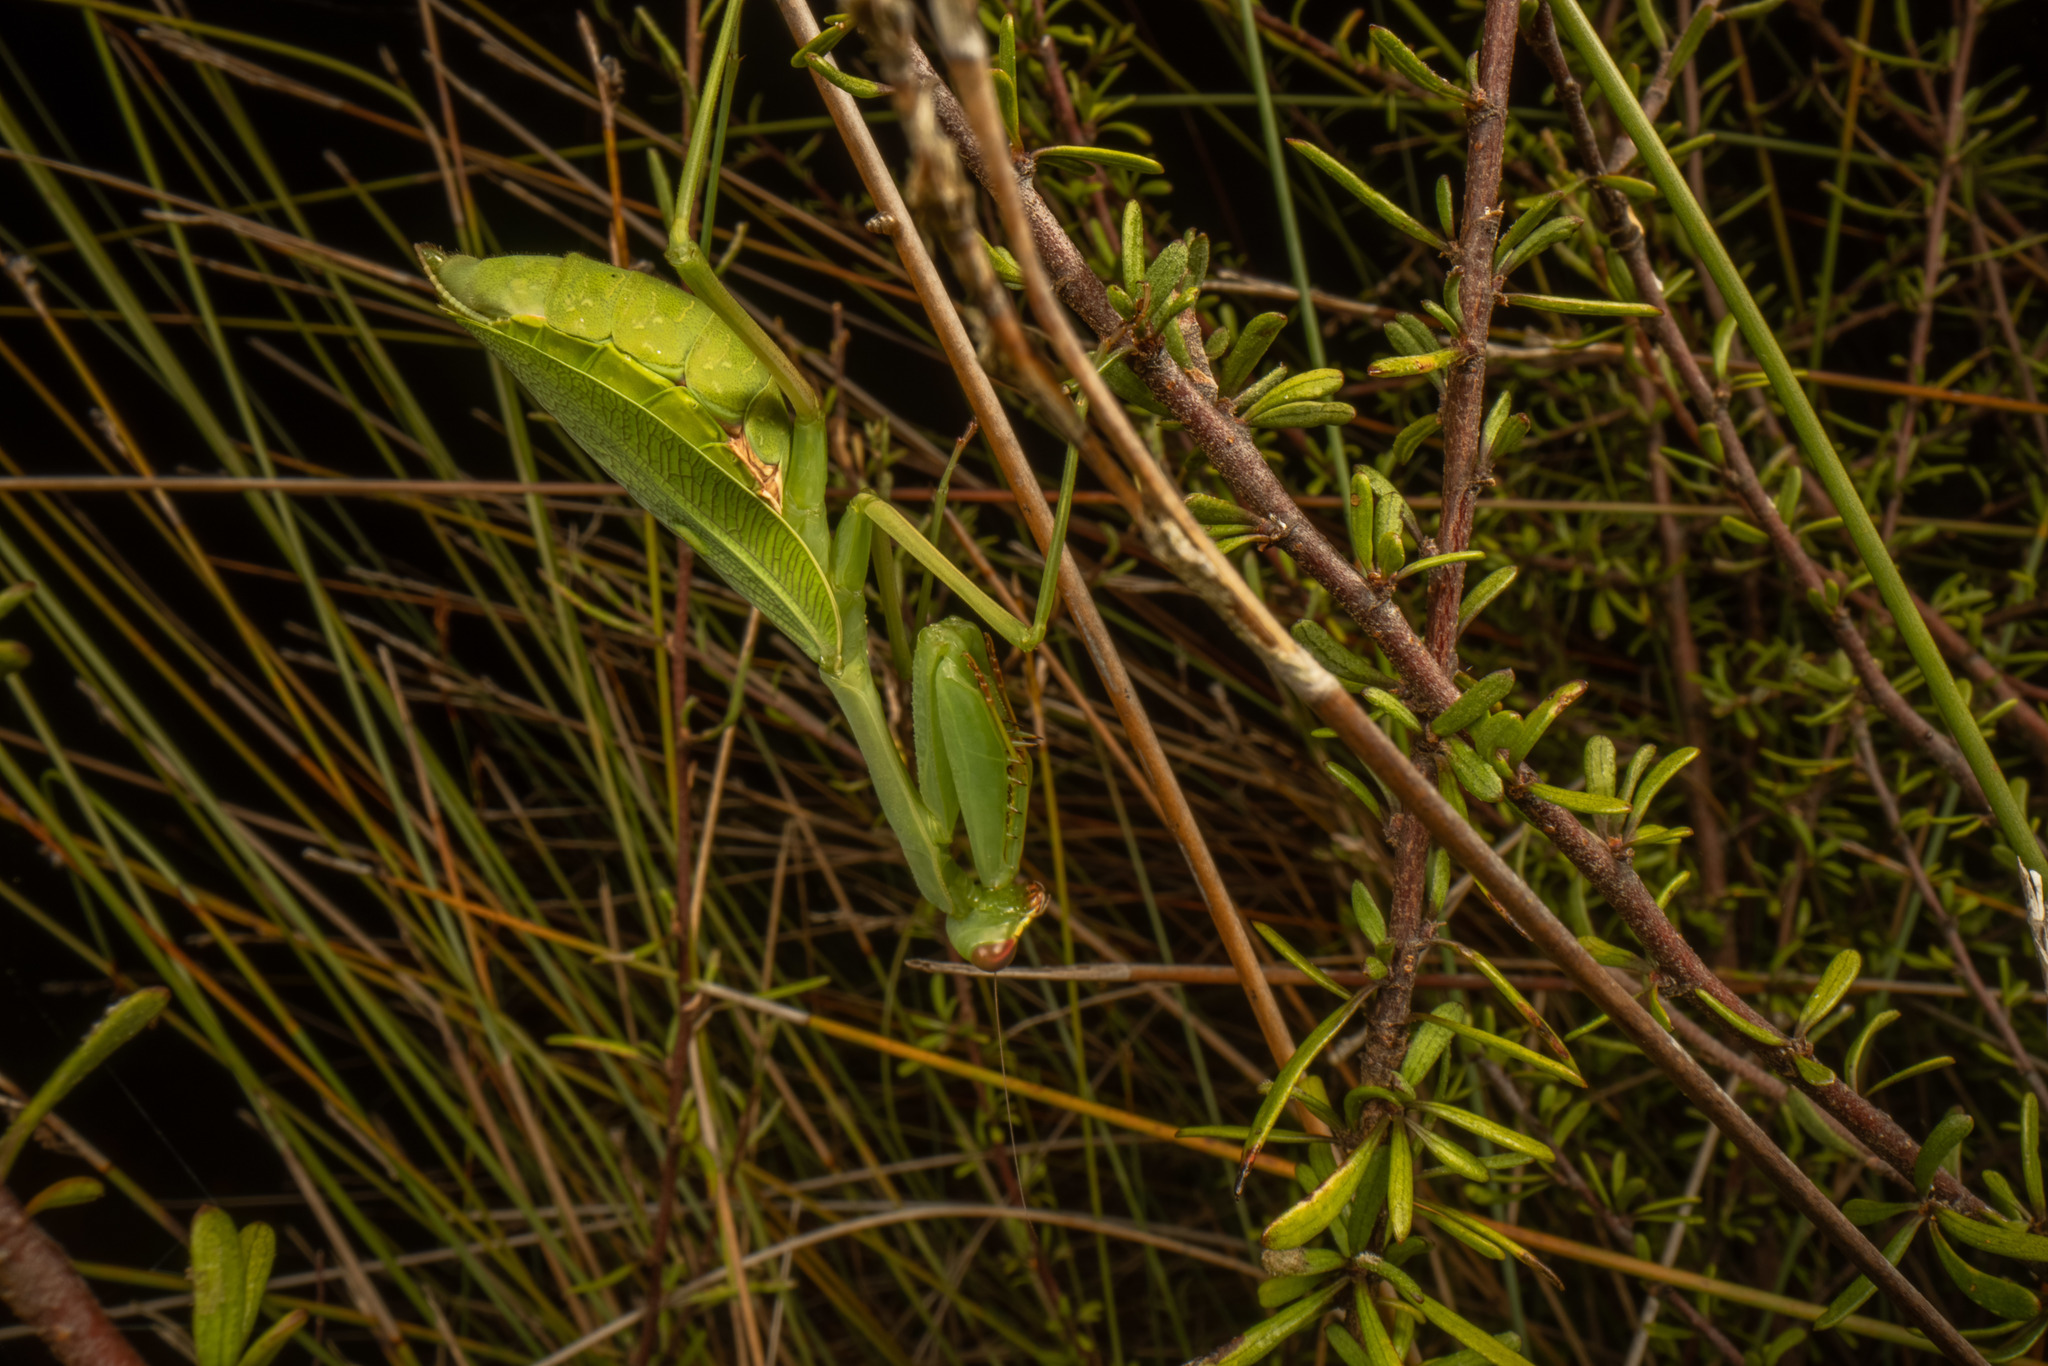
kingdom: Animalia
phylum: Arthropoda
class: Insecta
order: Mantodea
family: Miomantidae
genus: Miomantis
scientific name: Miomantis caffra
